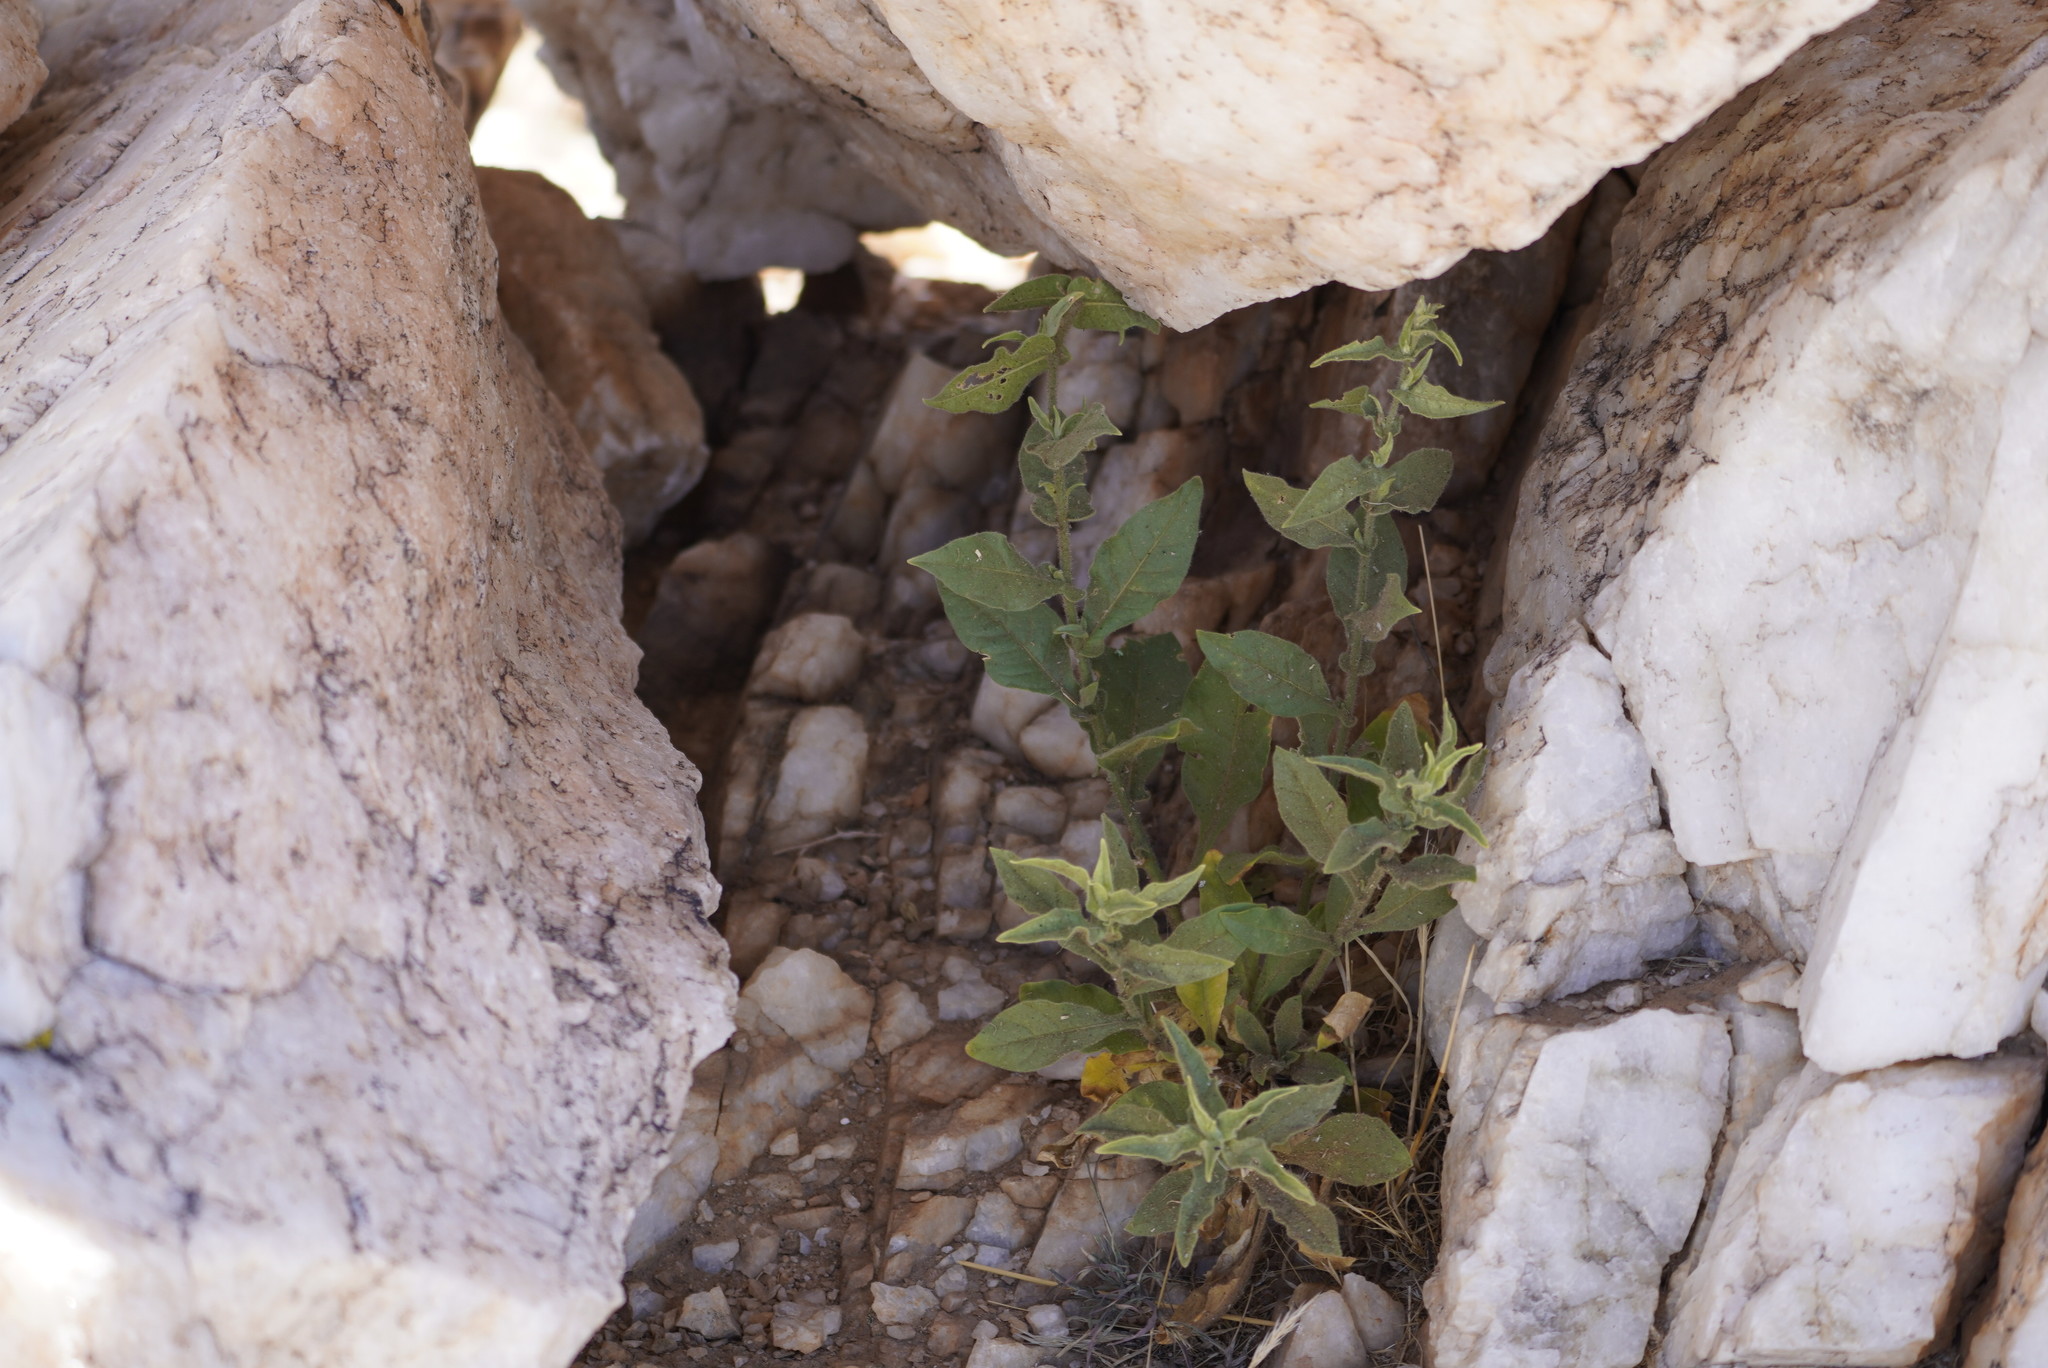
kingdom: Plantae
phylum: Tracheophyta
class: Magnoliopsida
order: Solanales
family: Solanaceae
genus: Nicotiana
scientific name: Nicotiana obtusifolia
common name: Desert tobacco
